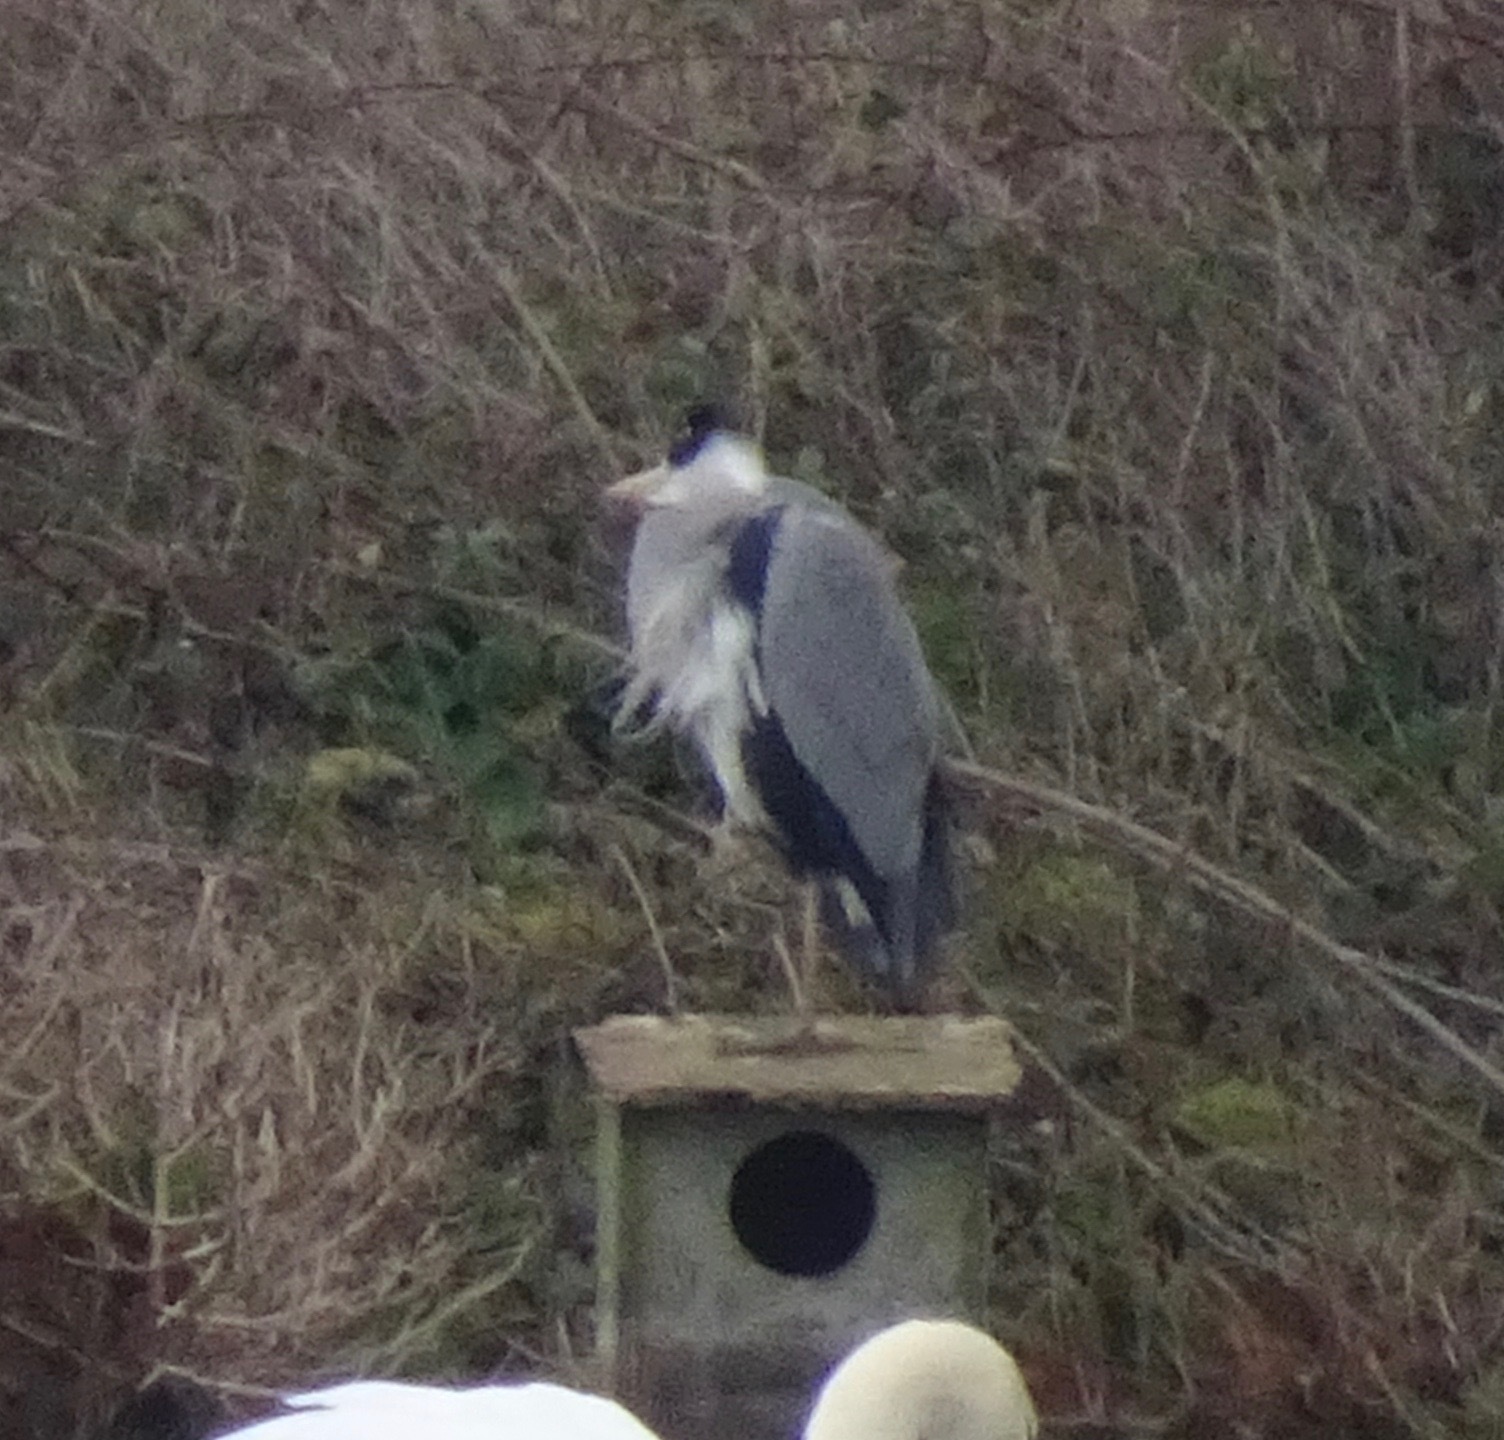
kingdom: Animalia
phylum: Chordata
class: Aves
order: Pelecaniformes
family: Ardeidae
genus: Ardea
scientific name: Ardea cinerea
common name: Grey heron
